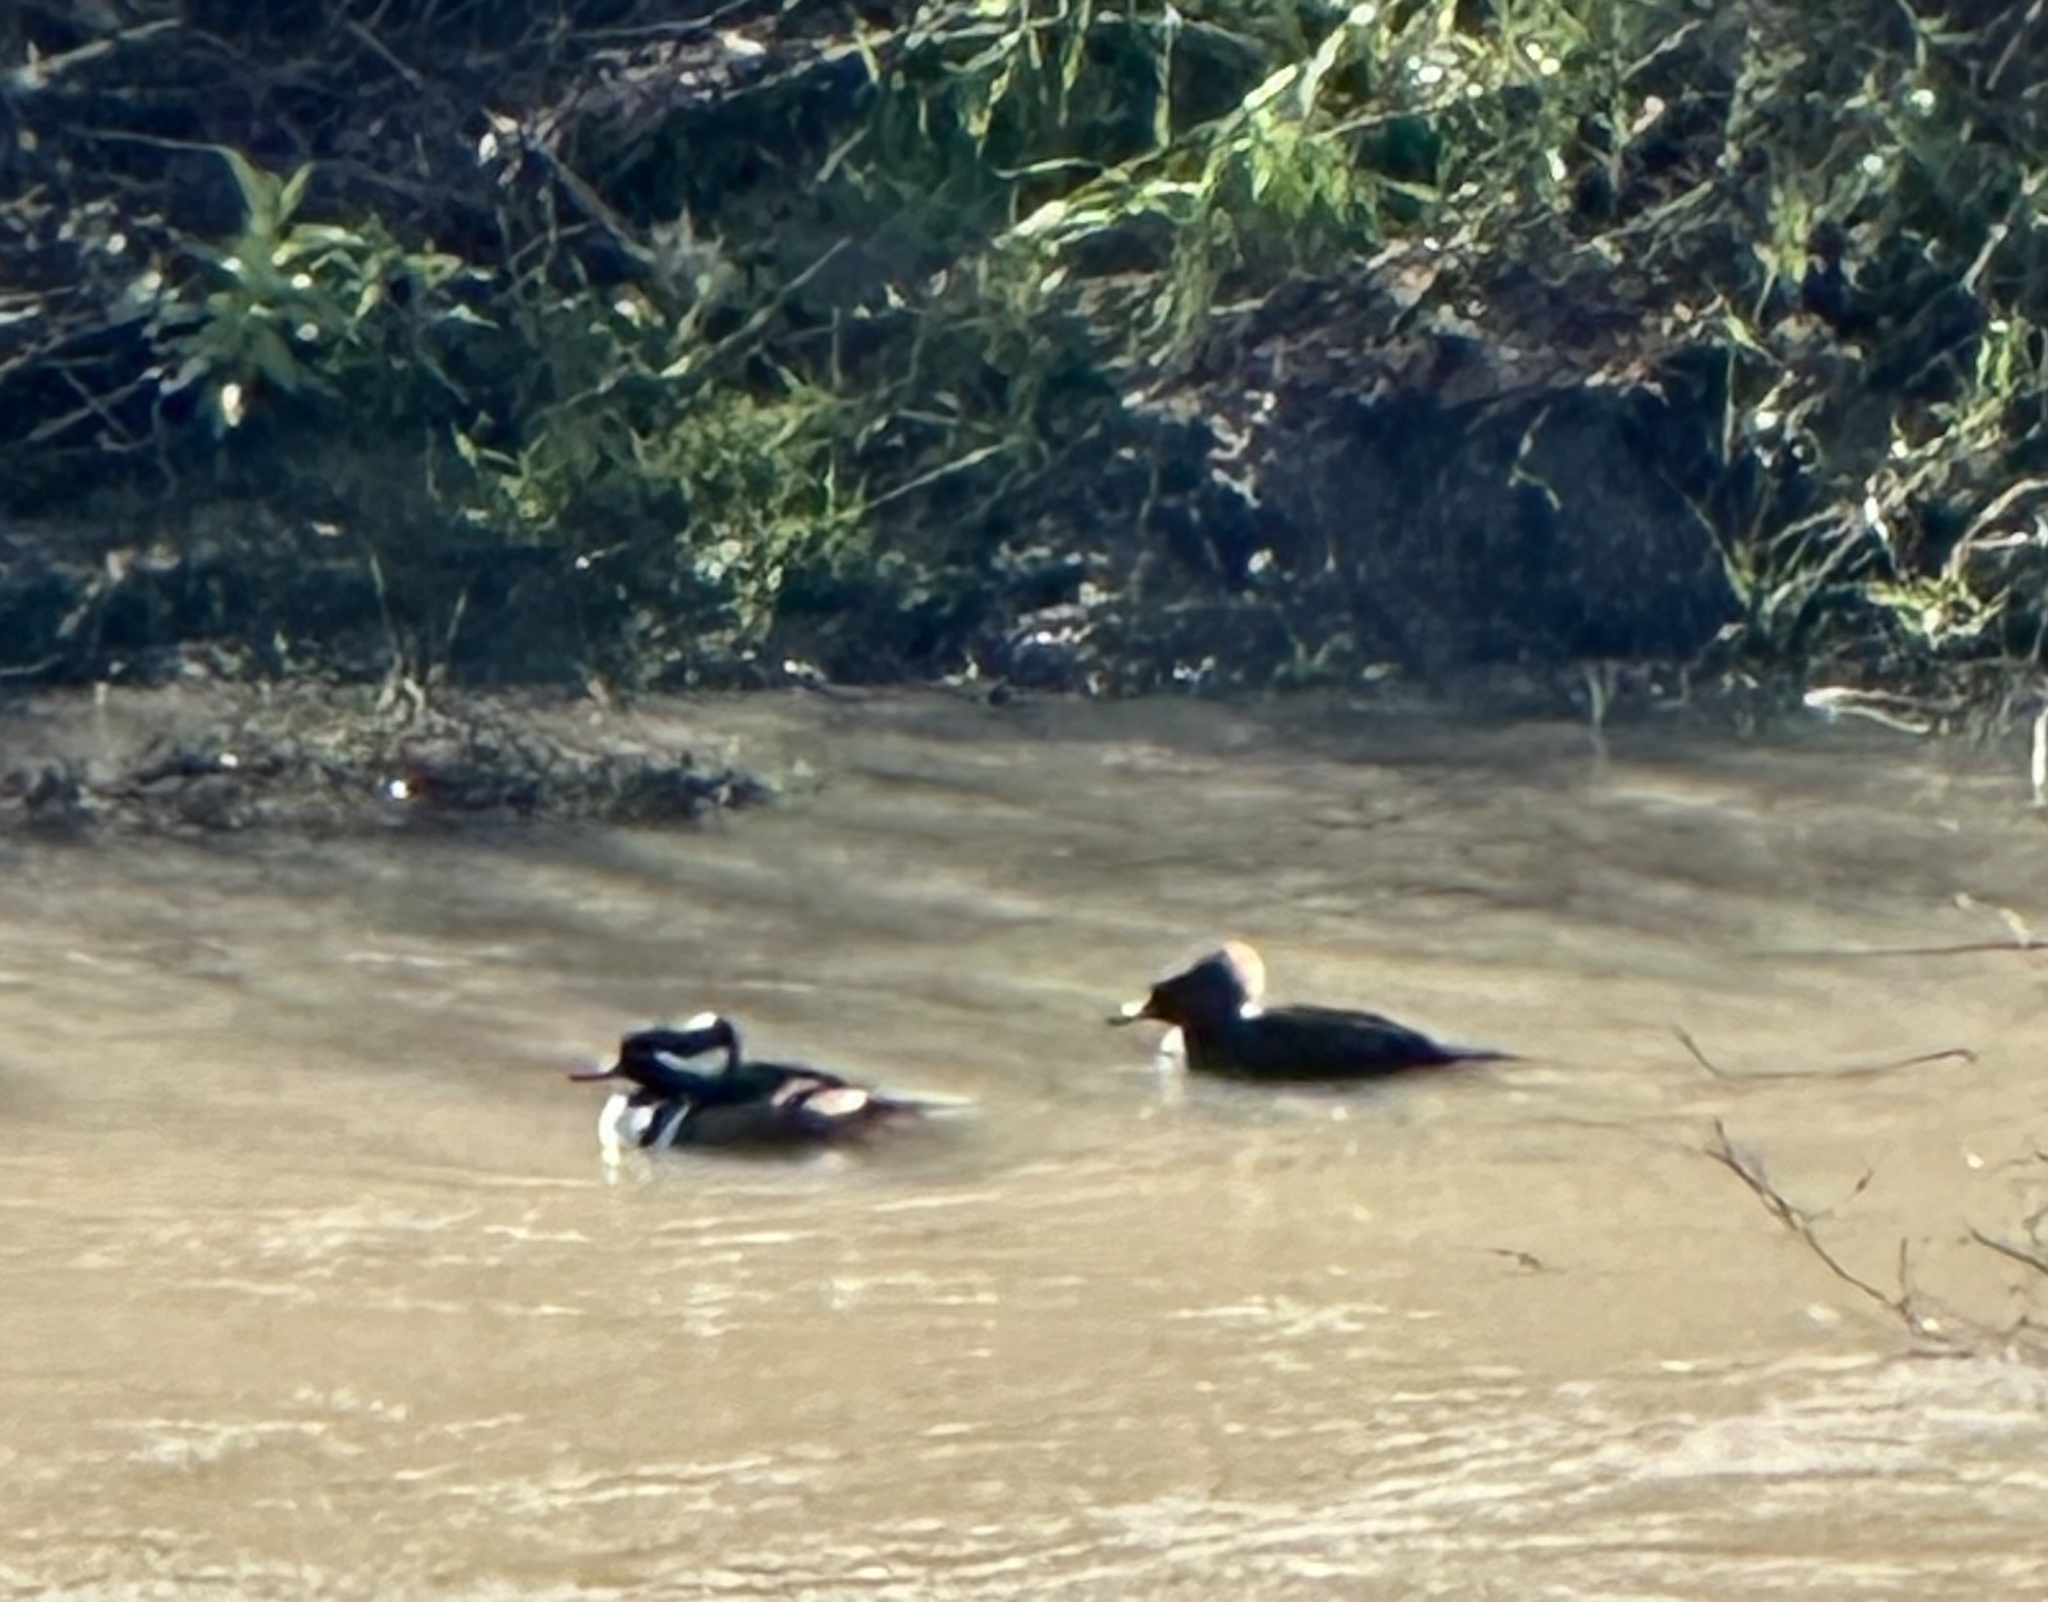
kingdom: Animalia
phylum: Chordata
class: Aves
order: Anseriformes
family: Anatidae
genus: Lophodytes
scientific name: Lophodytes cucullatus
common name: Hooded merganser
